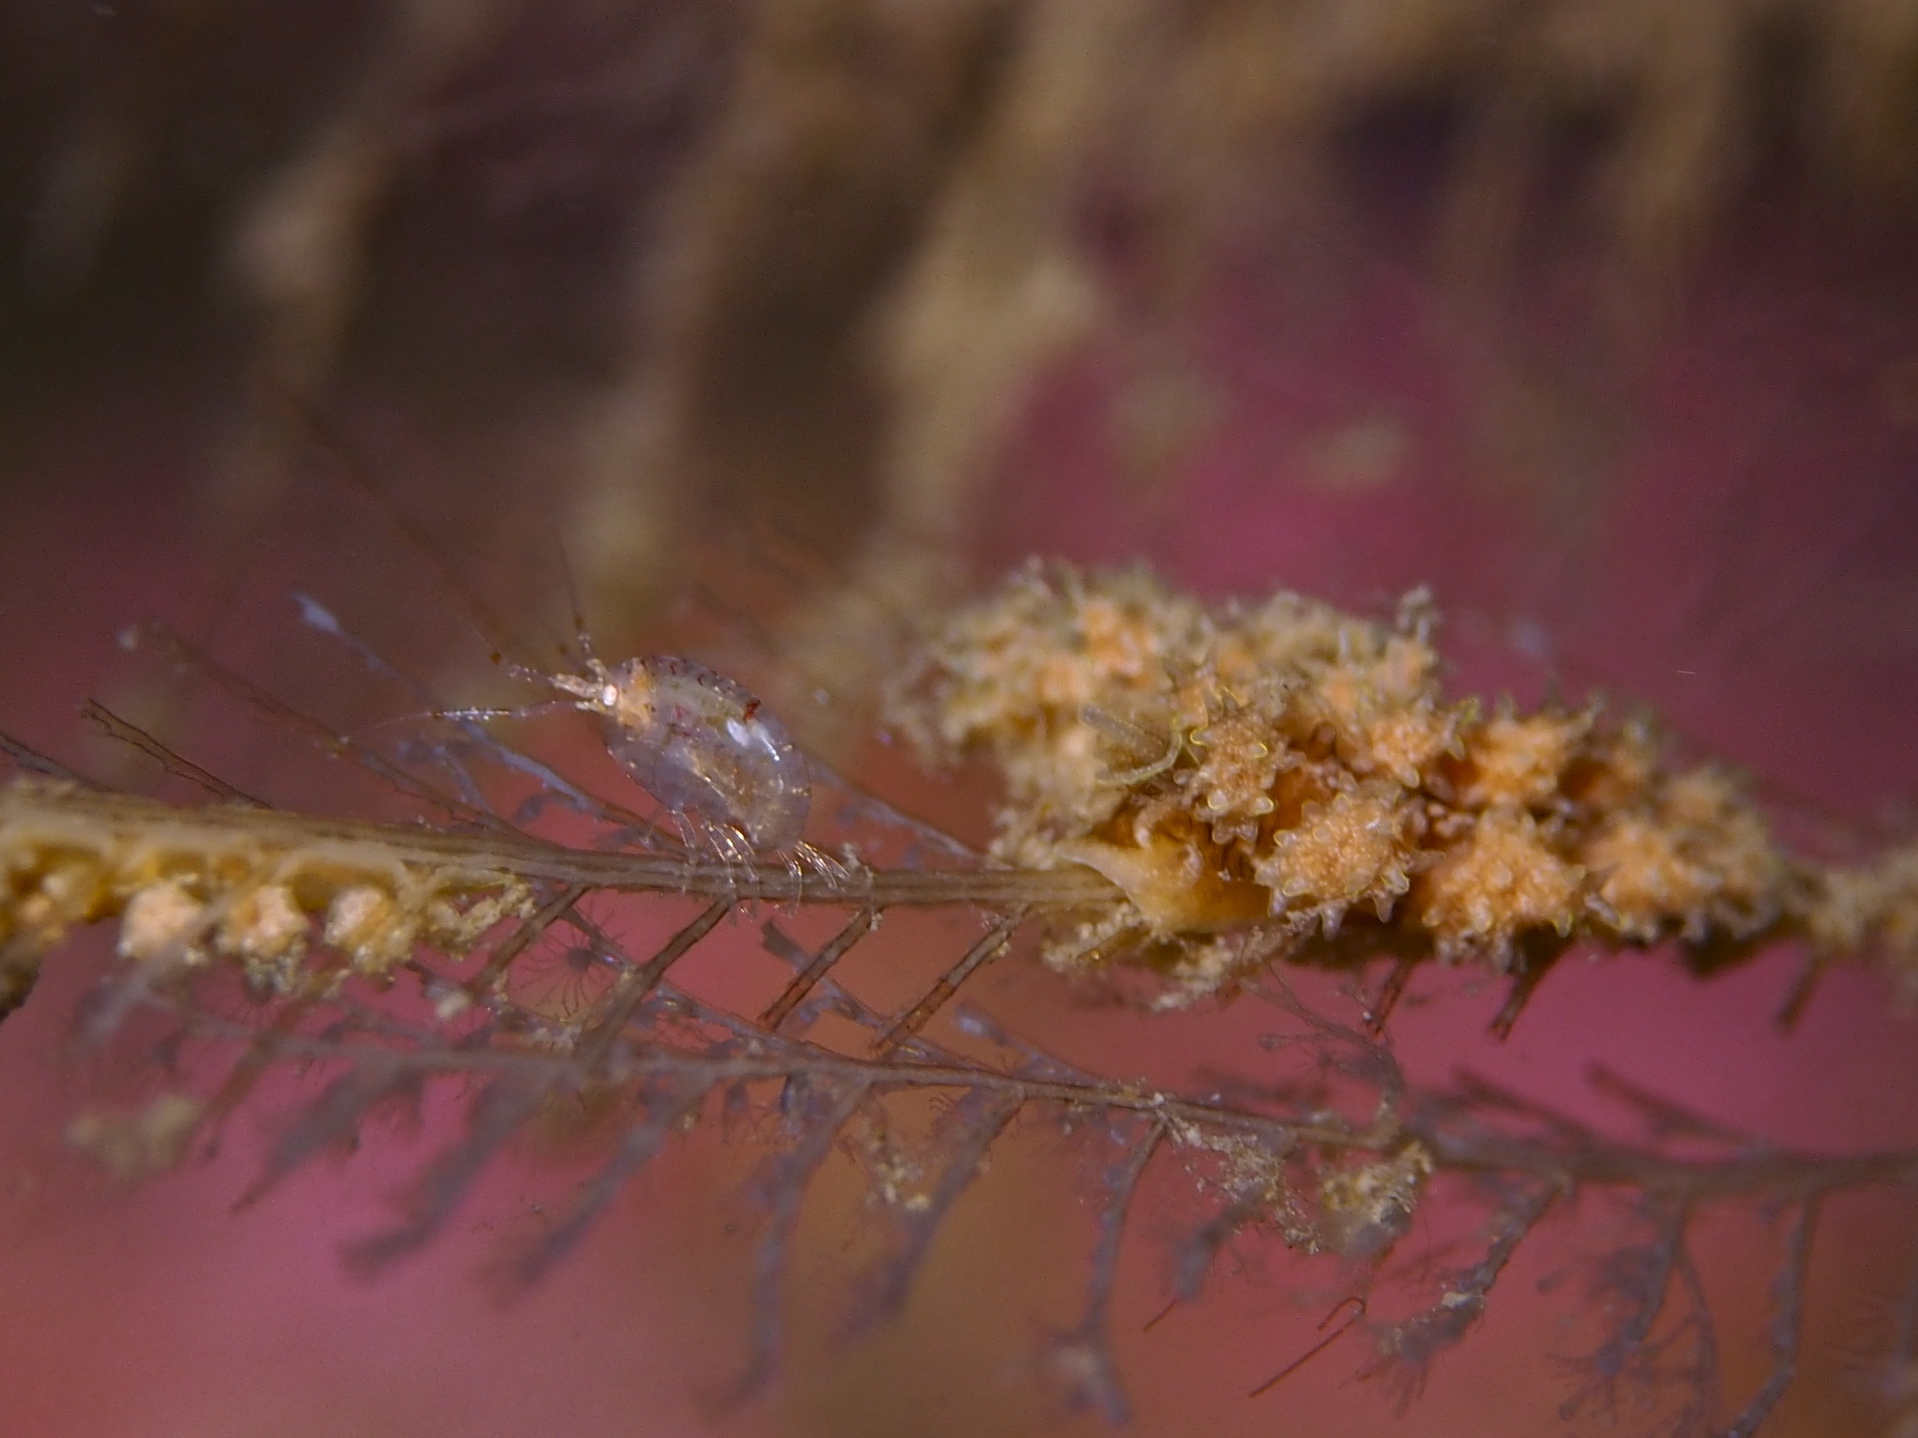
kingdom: Animalia
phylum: Mollusca
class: Gastropoda
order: Nudibranchia
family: Dotidae
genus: Doto
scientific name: Doto hystrix
